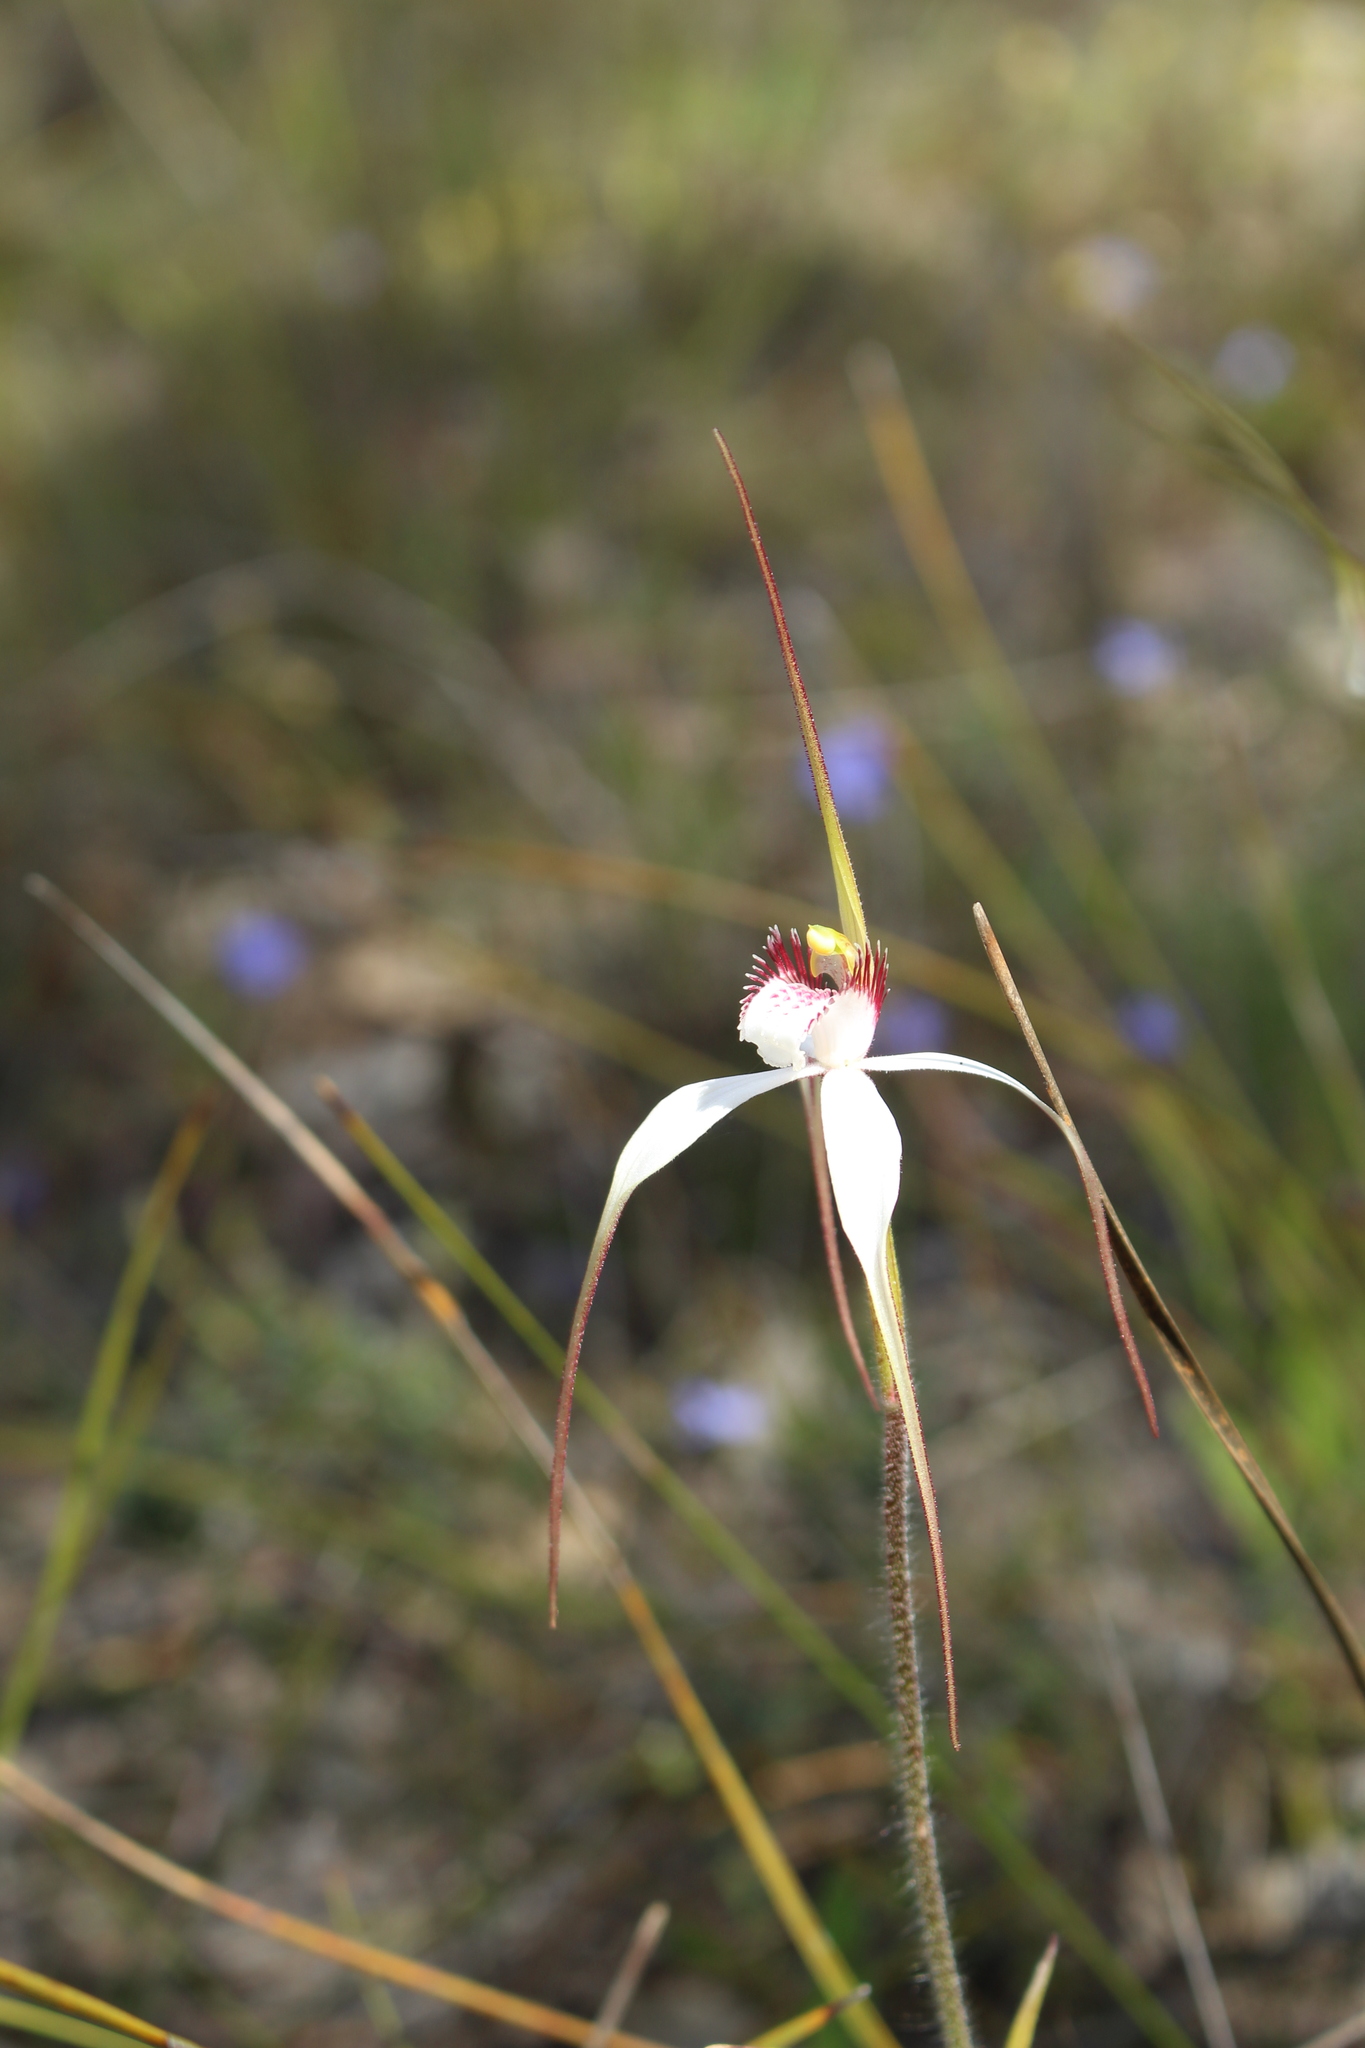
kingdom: Plantae
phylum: Tracheophyta
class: Liliopsida
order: Asparagales
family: Orchidaceae
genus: Caladenia
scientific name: Caladenia longicauda
